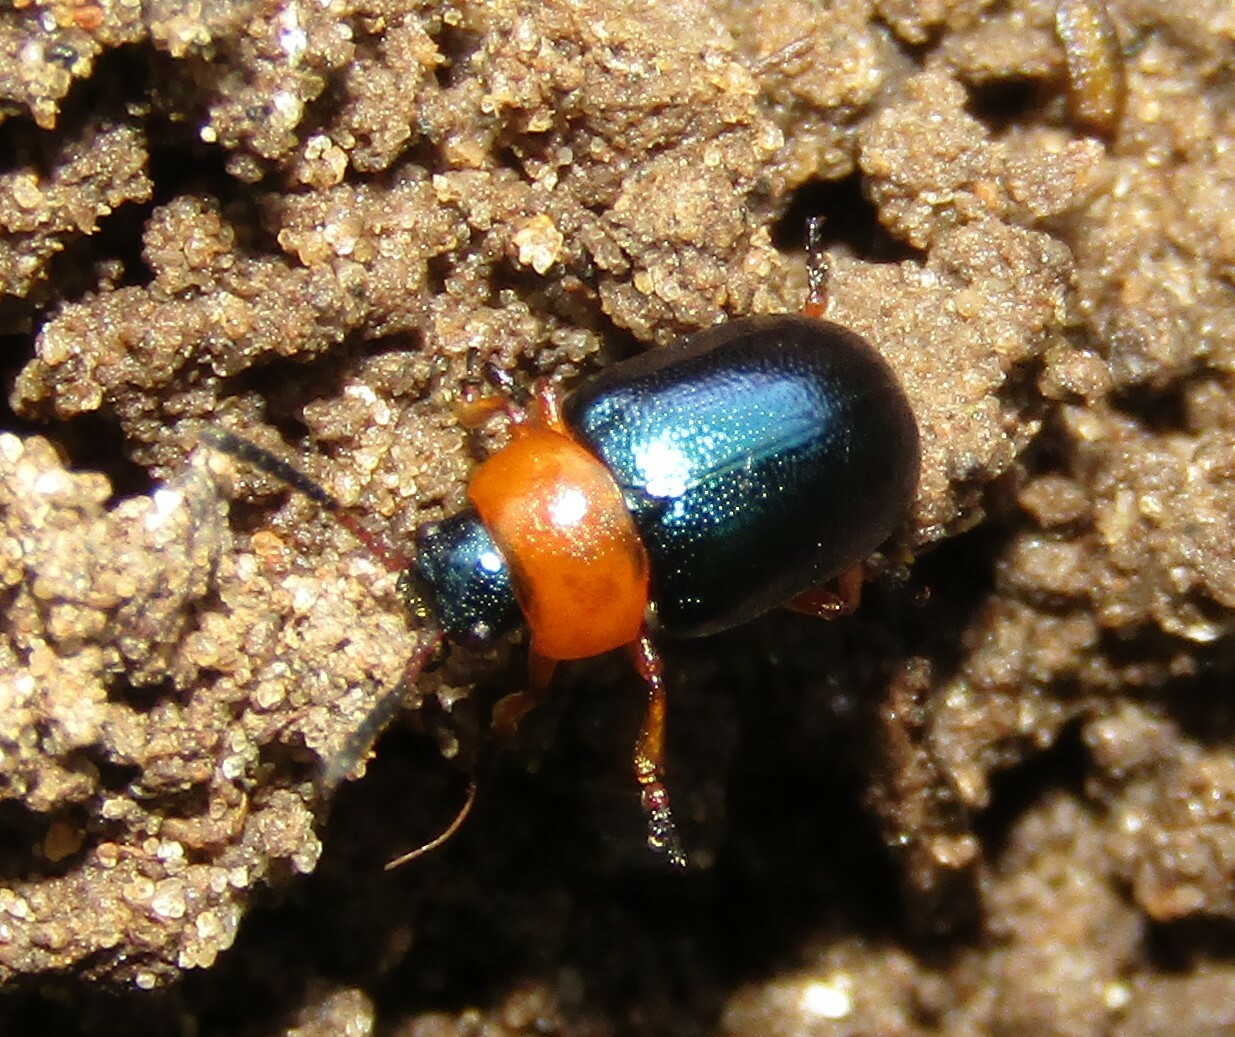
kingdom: Animalia
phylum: Arthropoda
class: Insecta
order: Coleoptera
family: Chrysomelidae
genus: Gastrophysa
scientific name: Gastrophysa polygoni
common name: Knotweed leaf beetle
